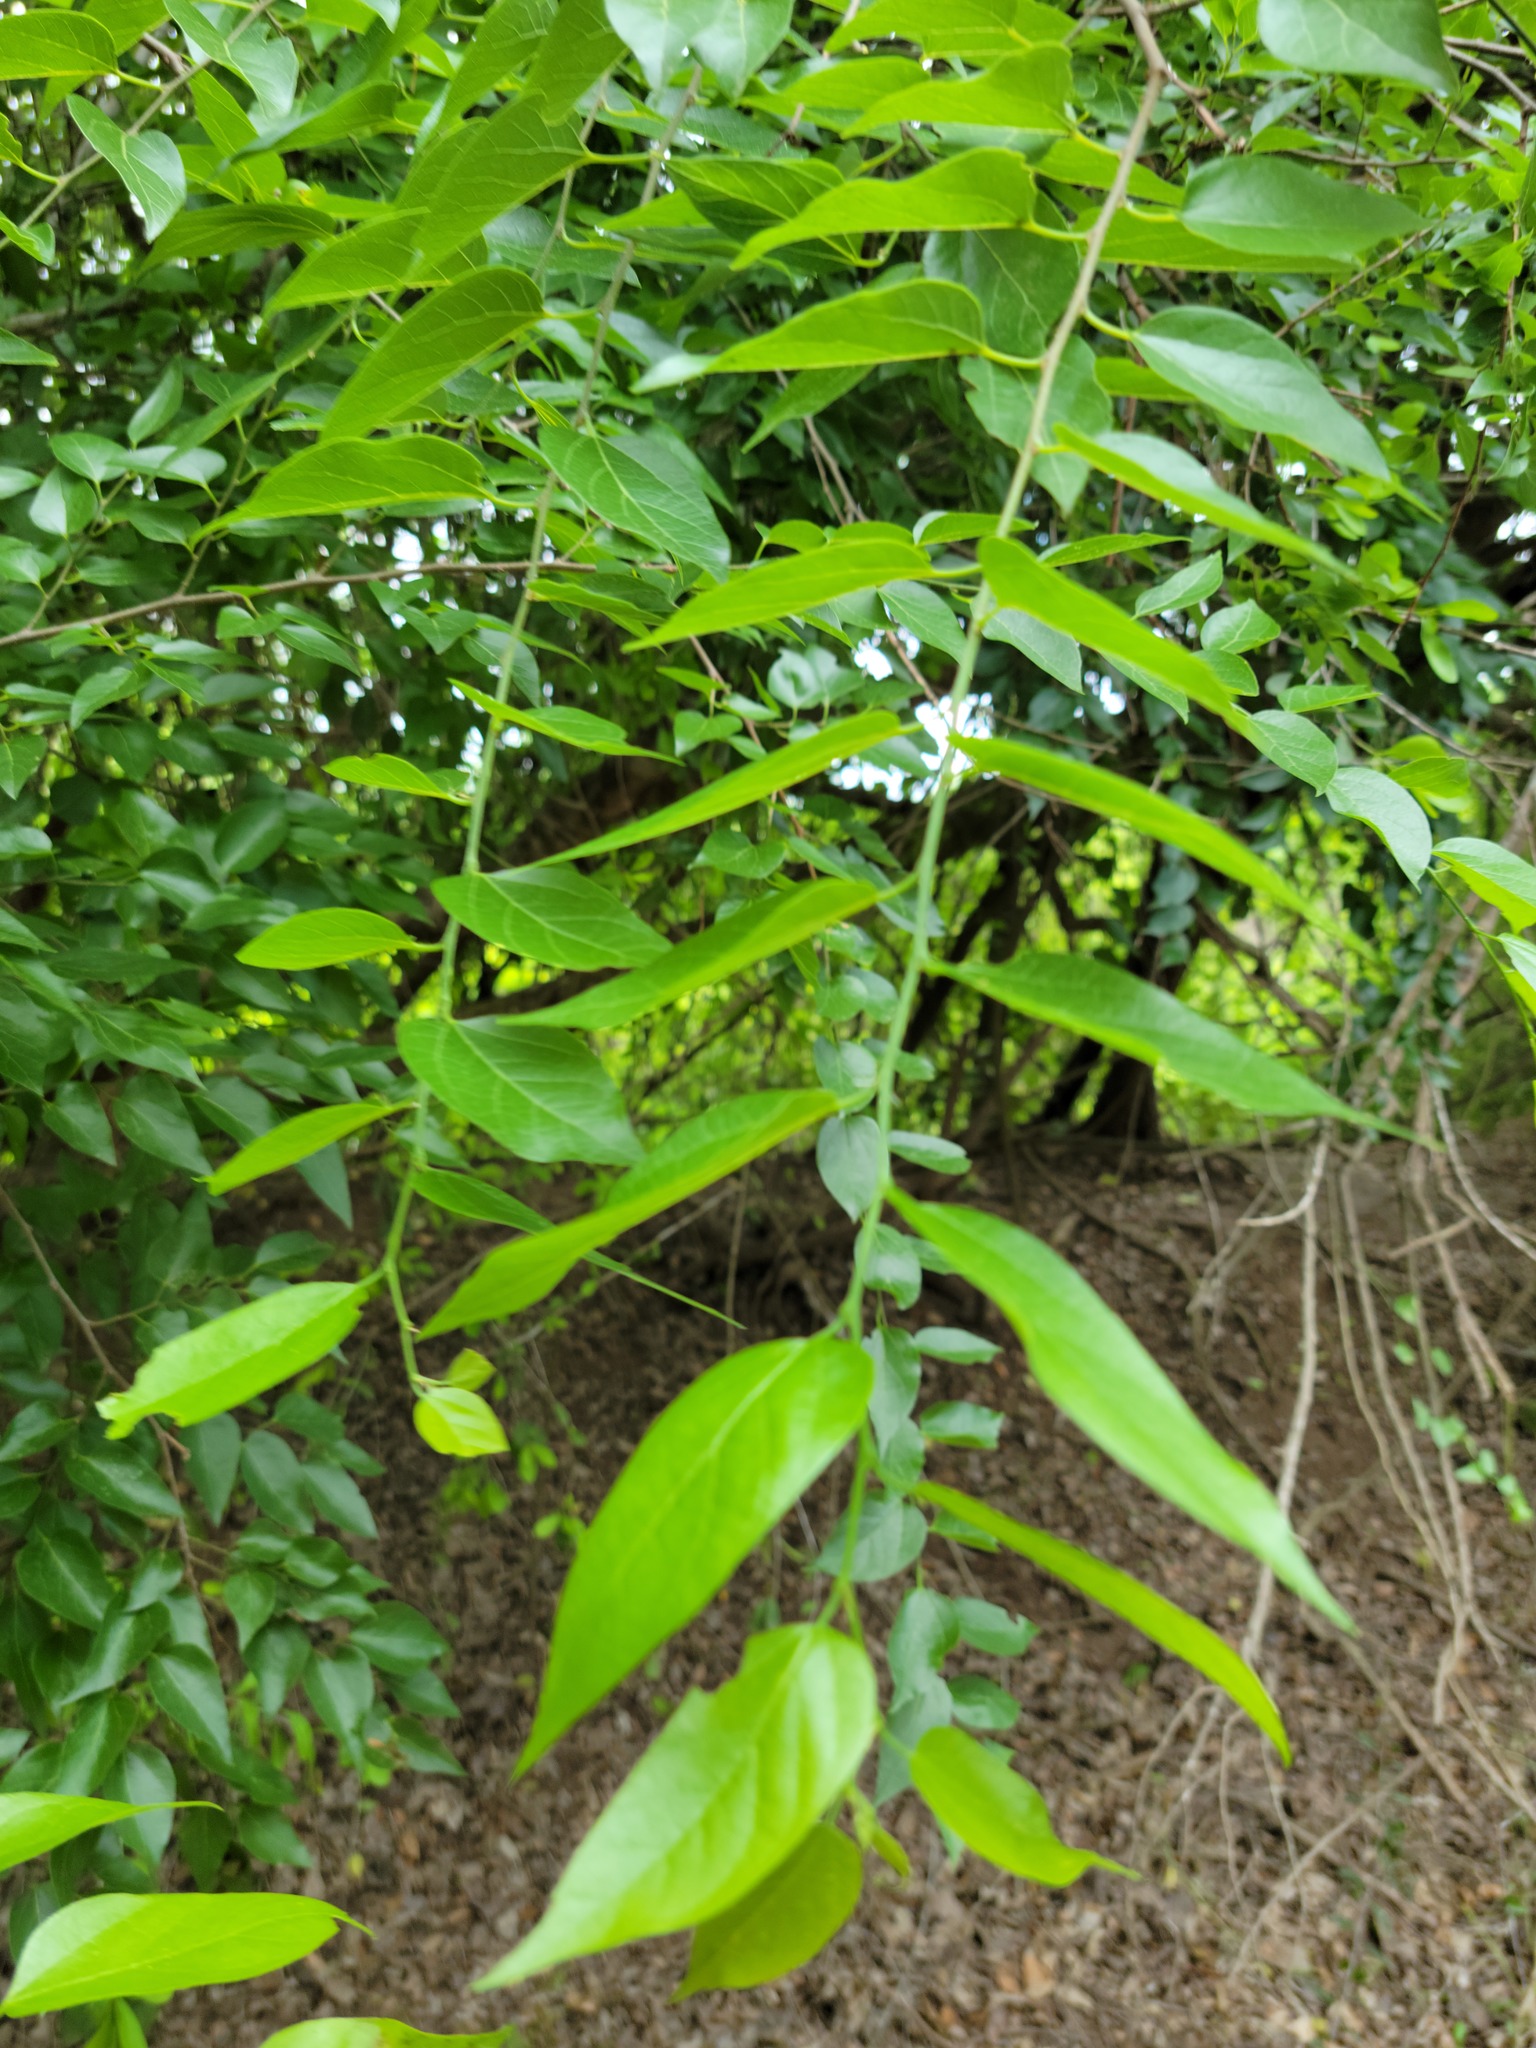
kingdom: Plantae
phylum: Tracheophyta
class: Magnoliopsida
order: Rosales
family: Cannabaceae
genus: Celtis
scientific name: Celtis laevigata
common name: Sugarberry
